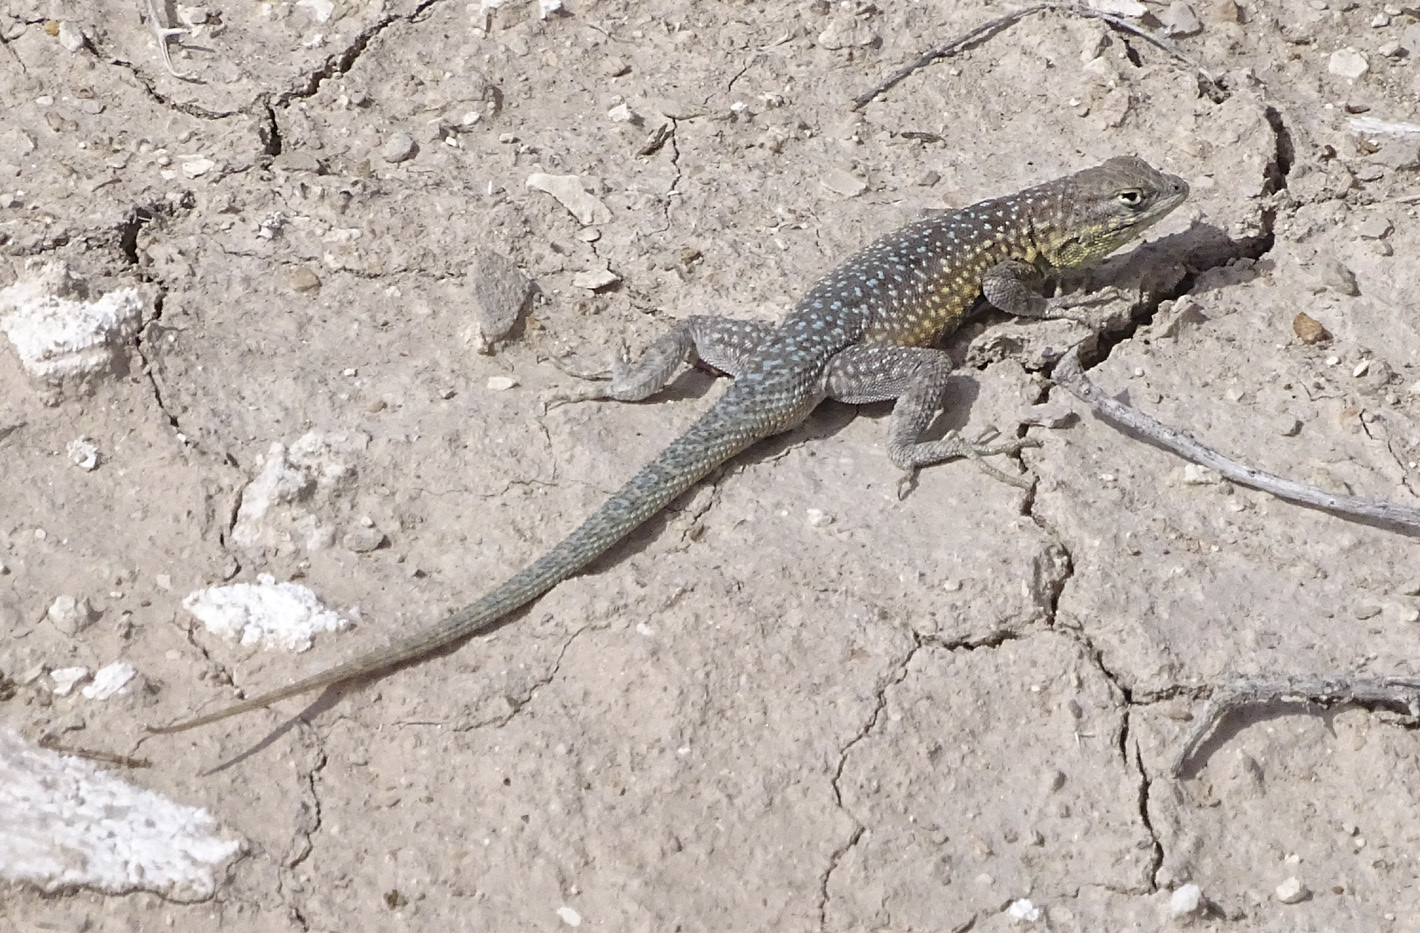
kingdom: Animalia
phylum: Chordata
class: Squamata
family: Phrynosomatidae
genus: Uta
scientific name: Uta stansburiana
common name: Side-blotched lizard
